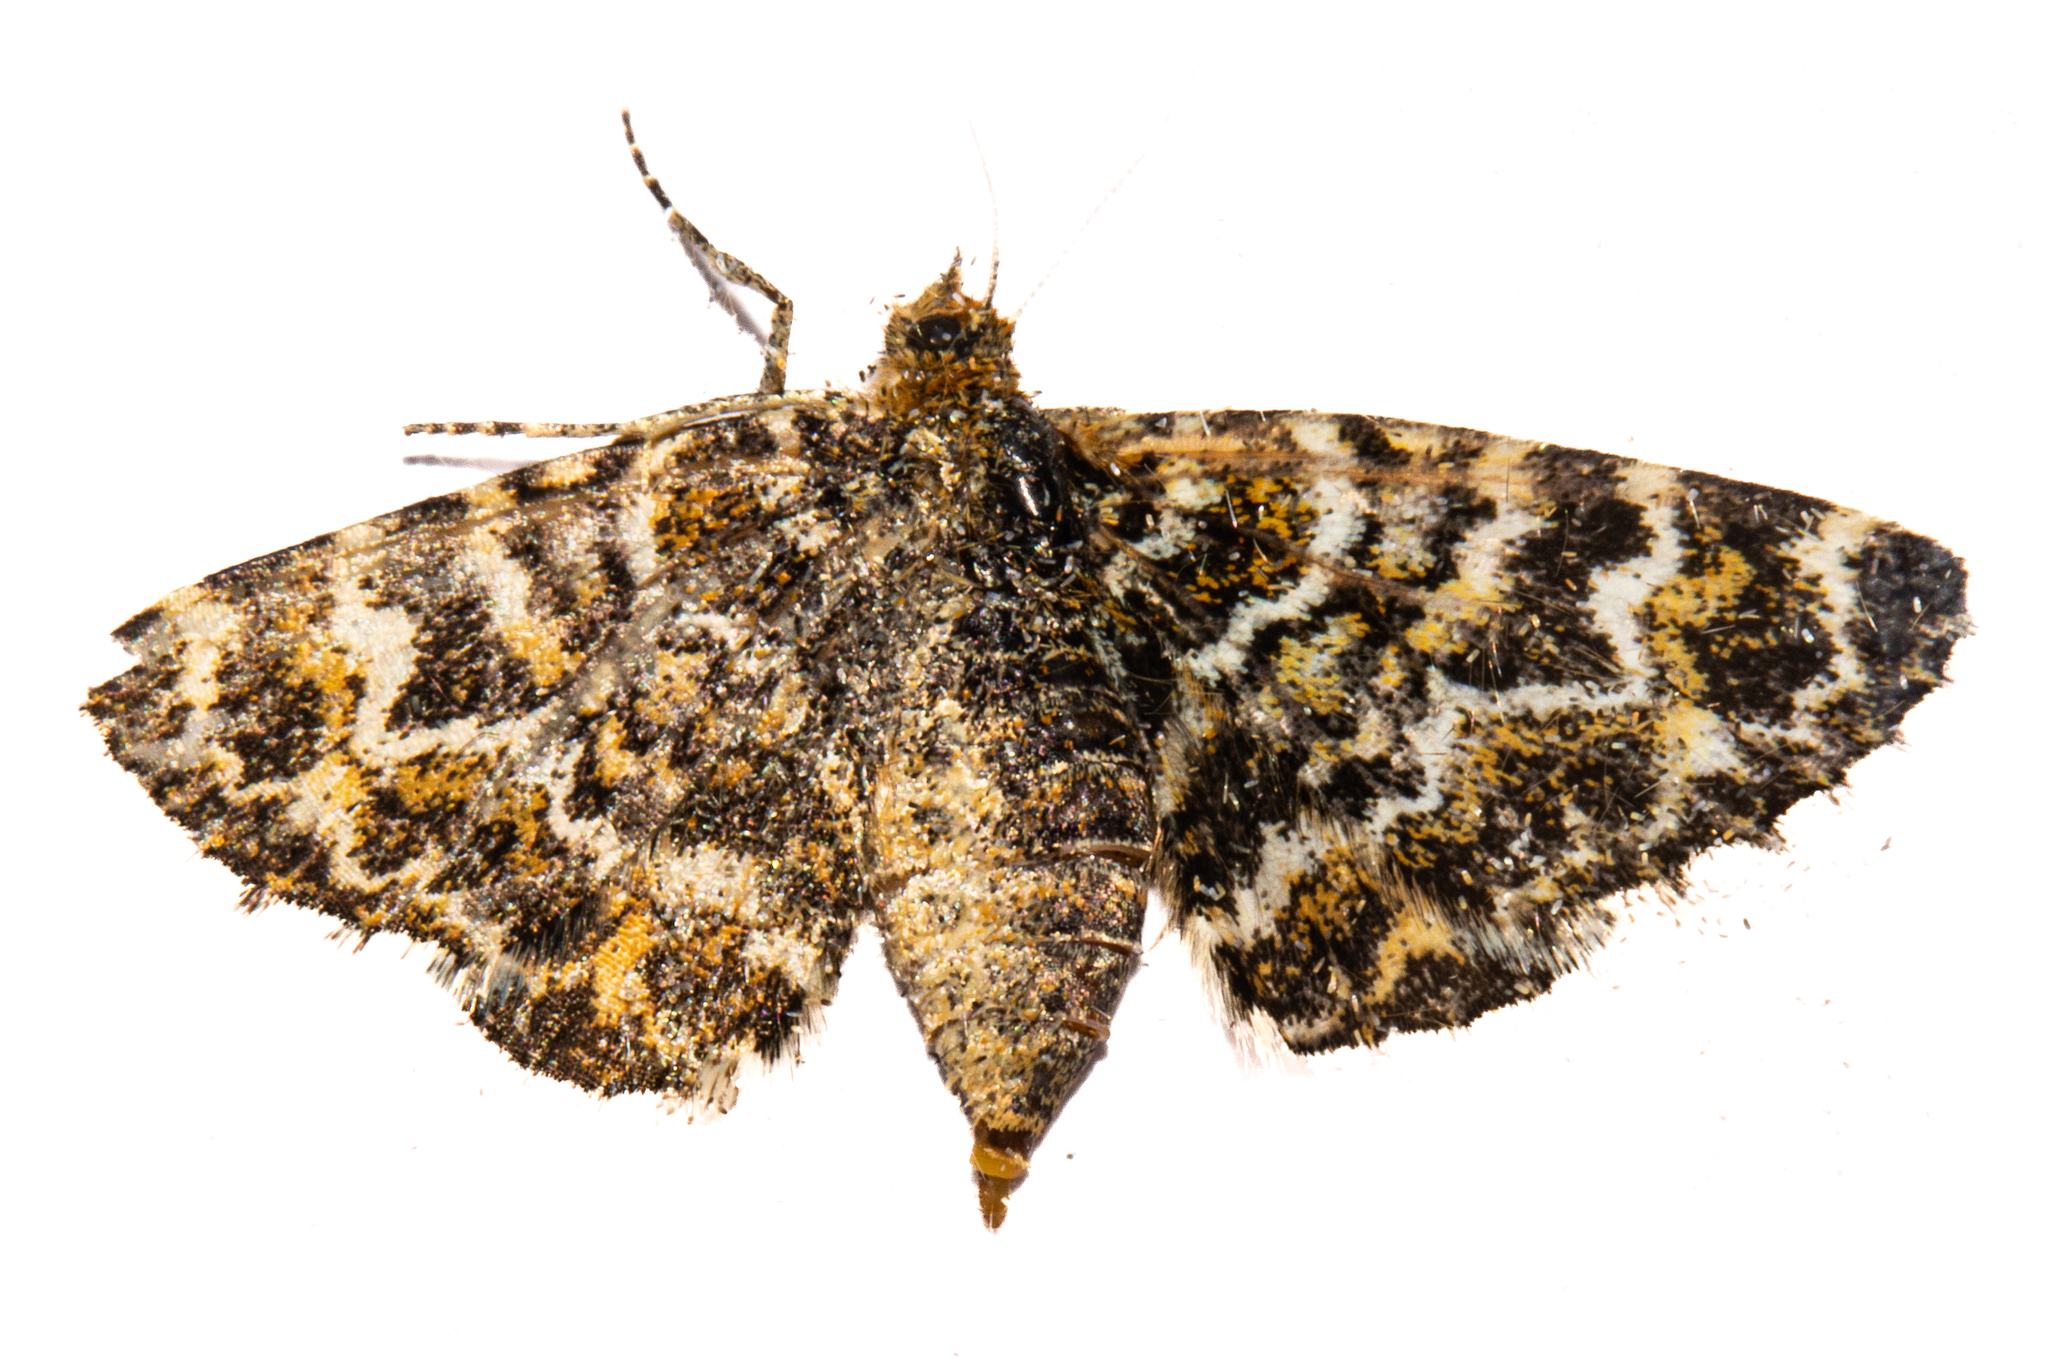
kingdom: Animalia
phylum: Arthropoda
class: Insecta
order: Lepidoptera
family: Geometridae
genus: Notoreas
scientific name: Notoreas arcuata
